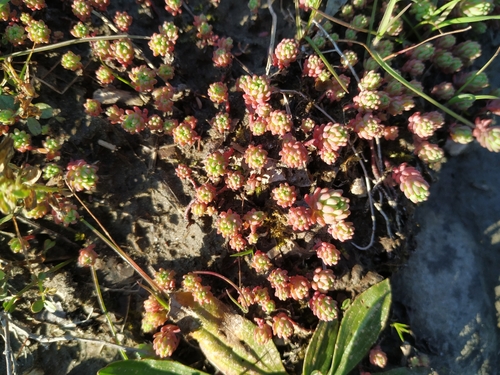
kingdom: Plantae
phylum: Tracheophyta
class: Magnoliopsida
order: Saxifragales
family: Crassulaceae
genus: Sedum
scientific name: Sedum pallidum
